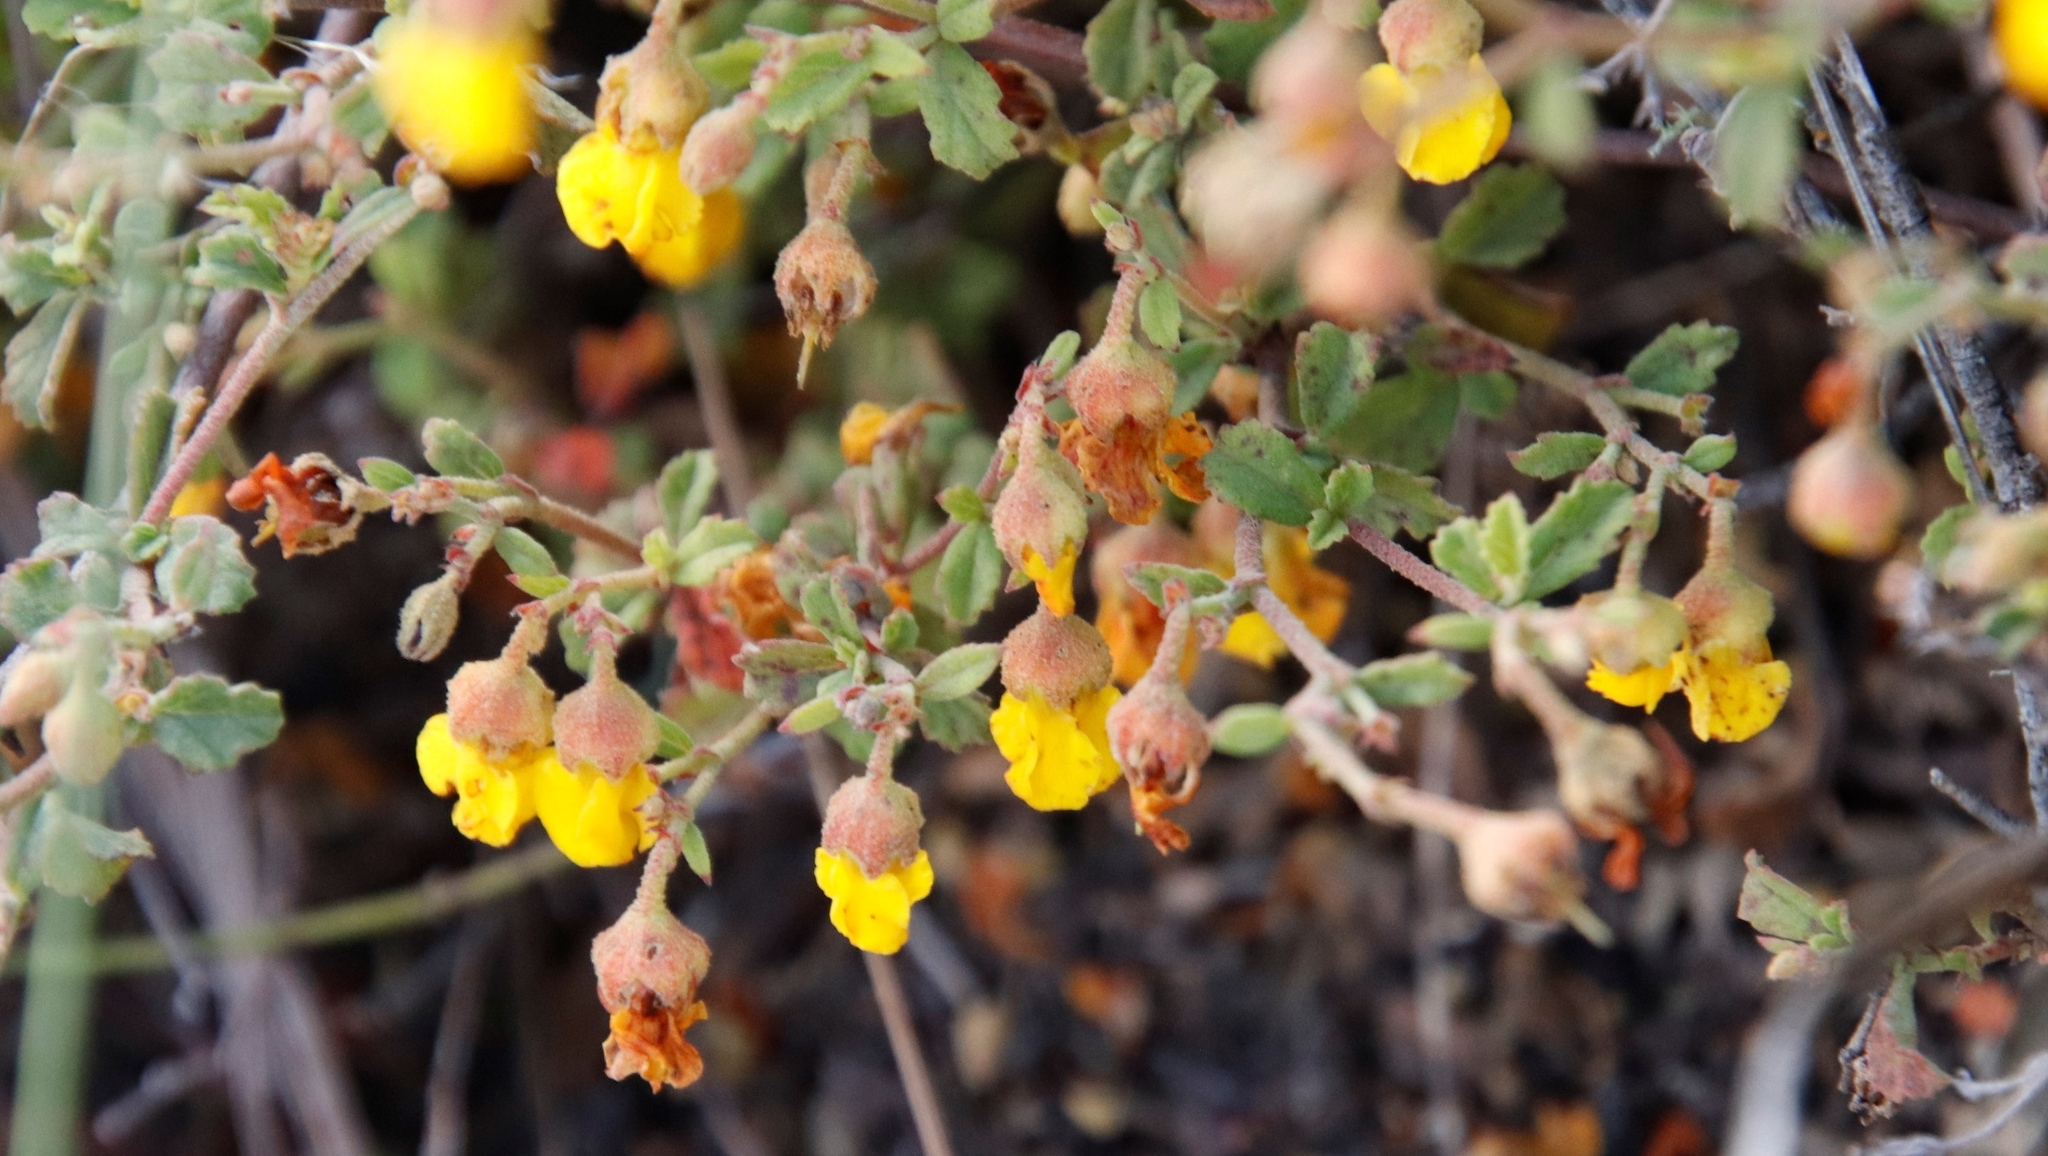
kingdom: Plantae
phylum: Tracheophyta
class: Magnoliopsida
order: Malvales
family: Malvaceae
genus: Hermannia
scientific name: Hermannia multiflora
